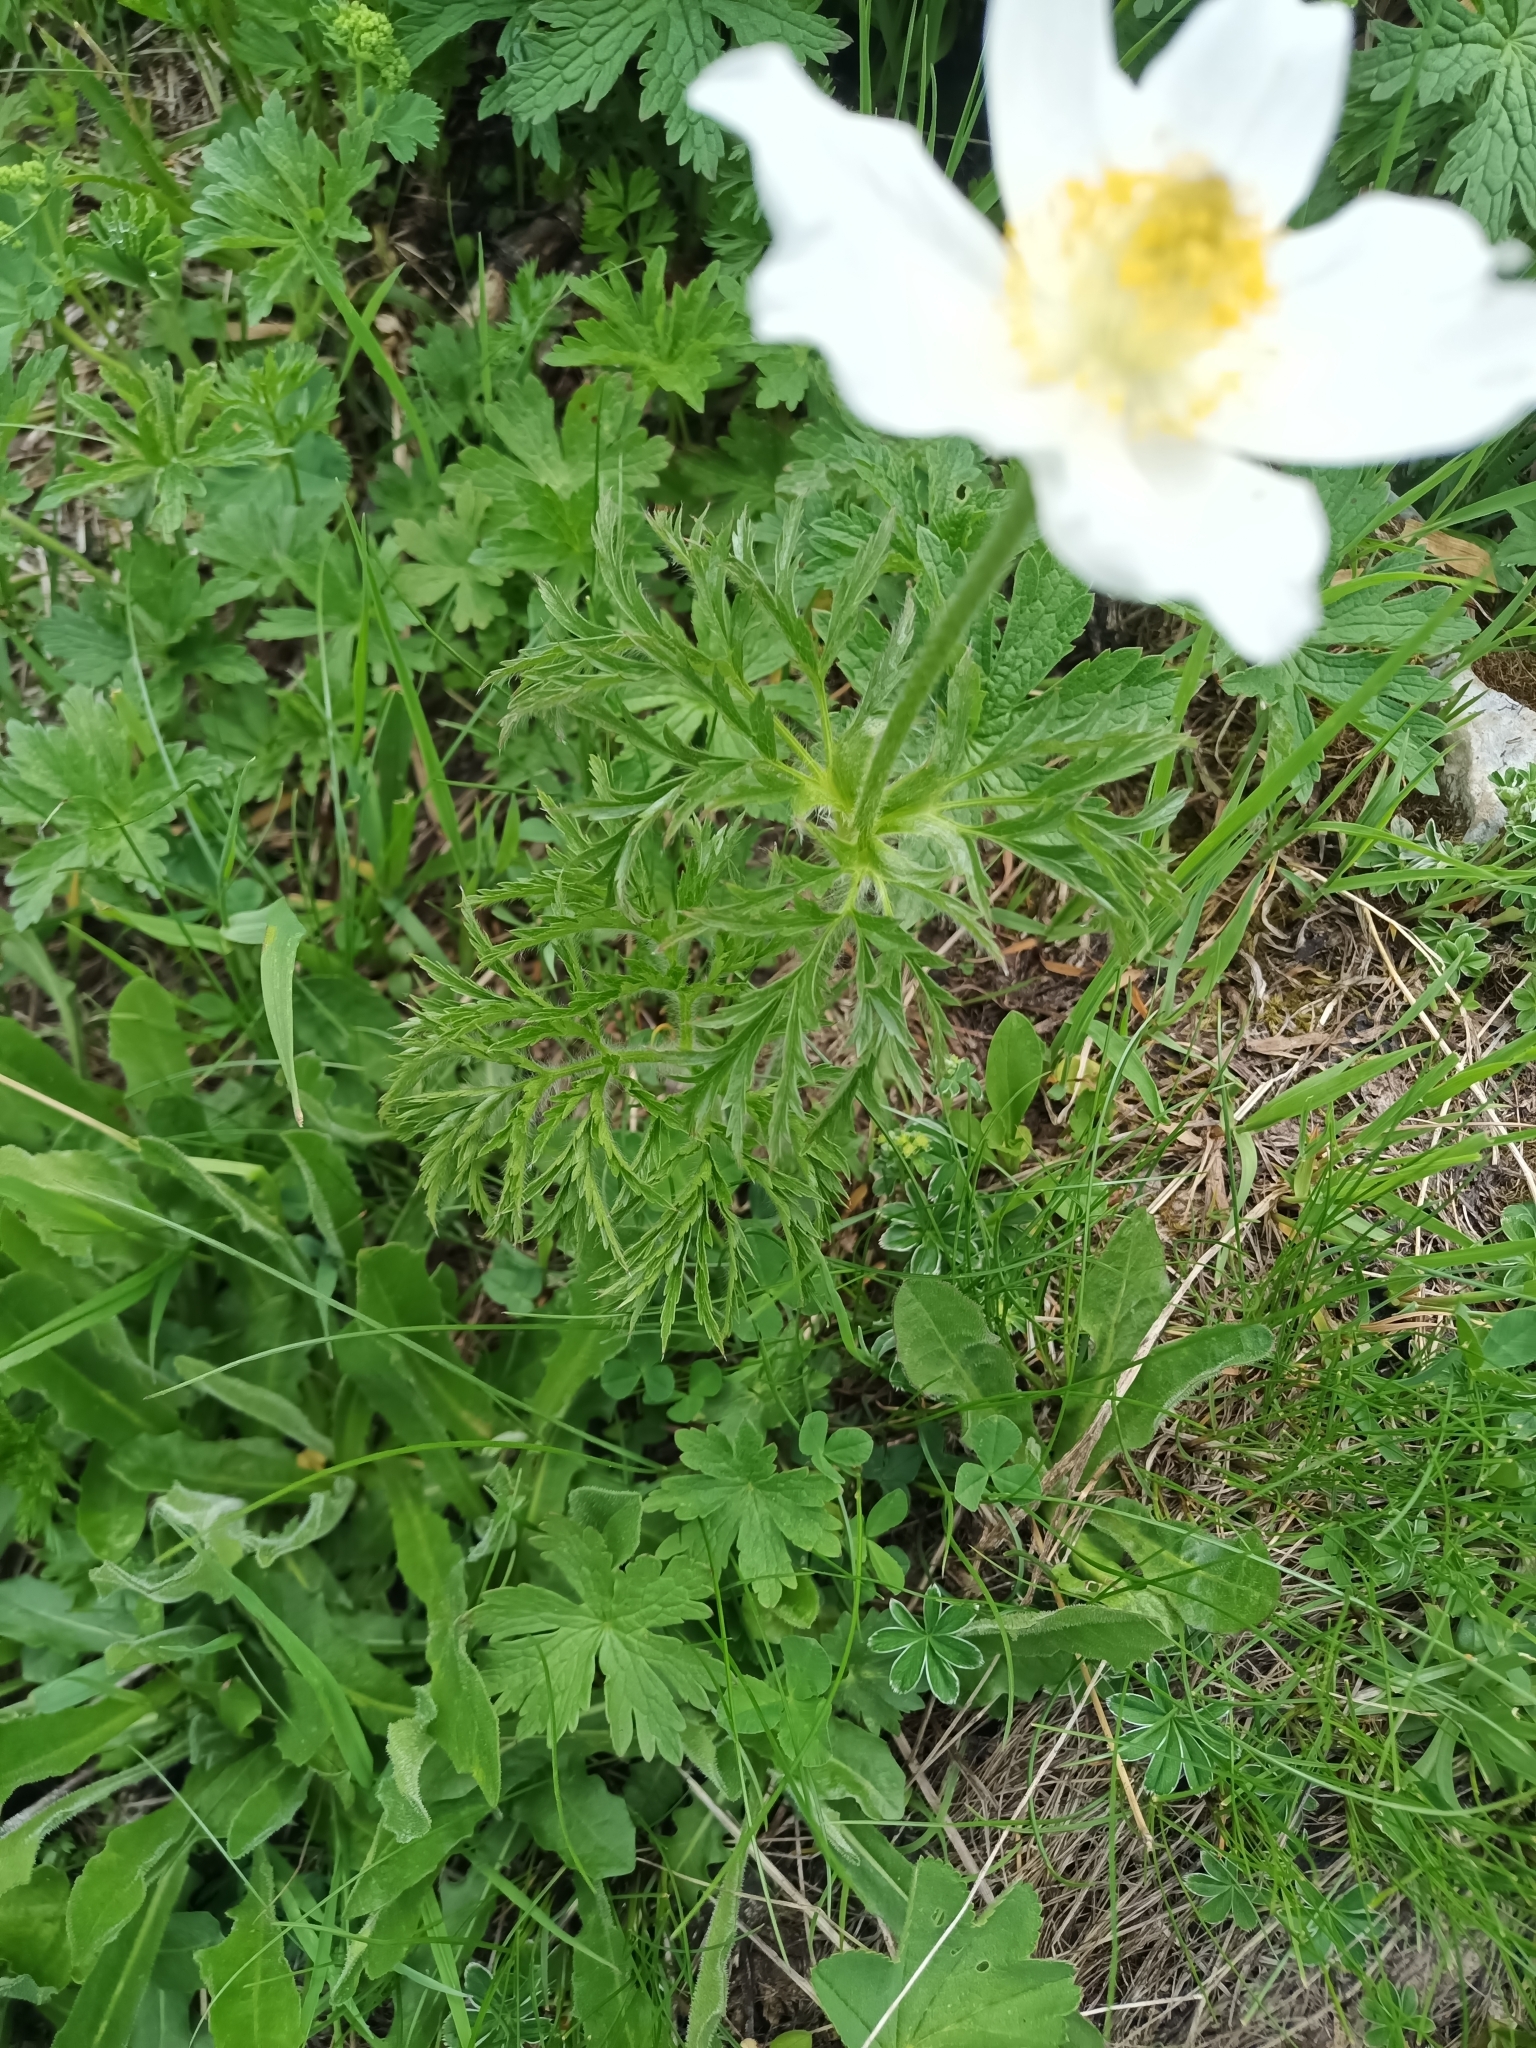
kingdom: Plantae
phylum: Tracheophyta
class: Magnoliopsida
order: Ranunculales
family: Ranunculaceae
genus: Pulsatilla
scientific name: Pulsatilla alpina
